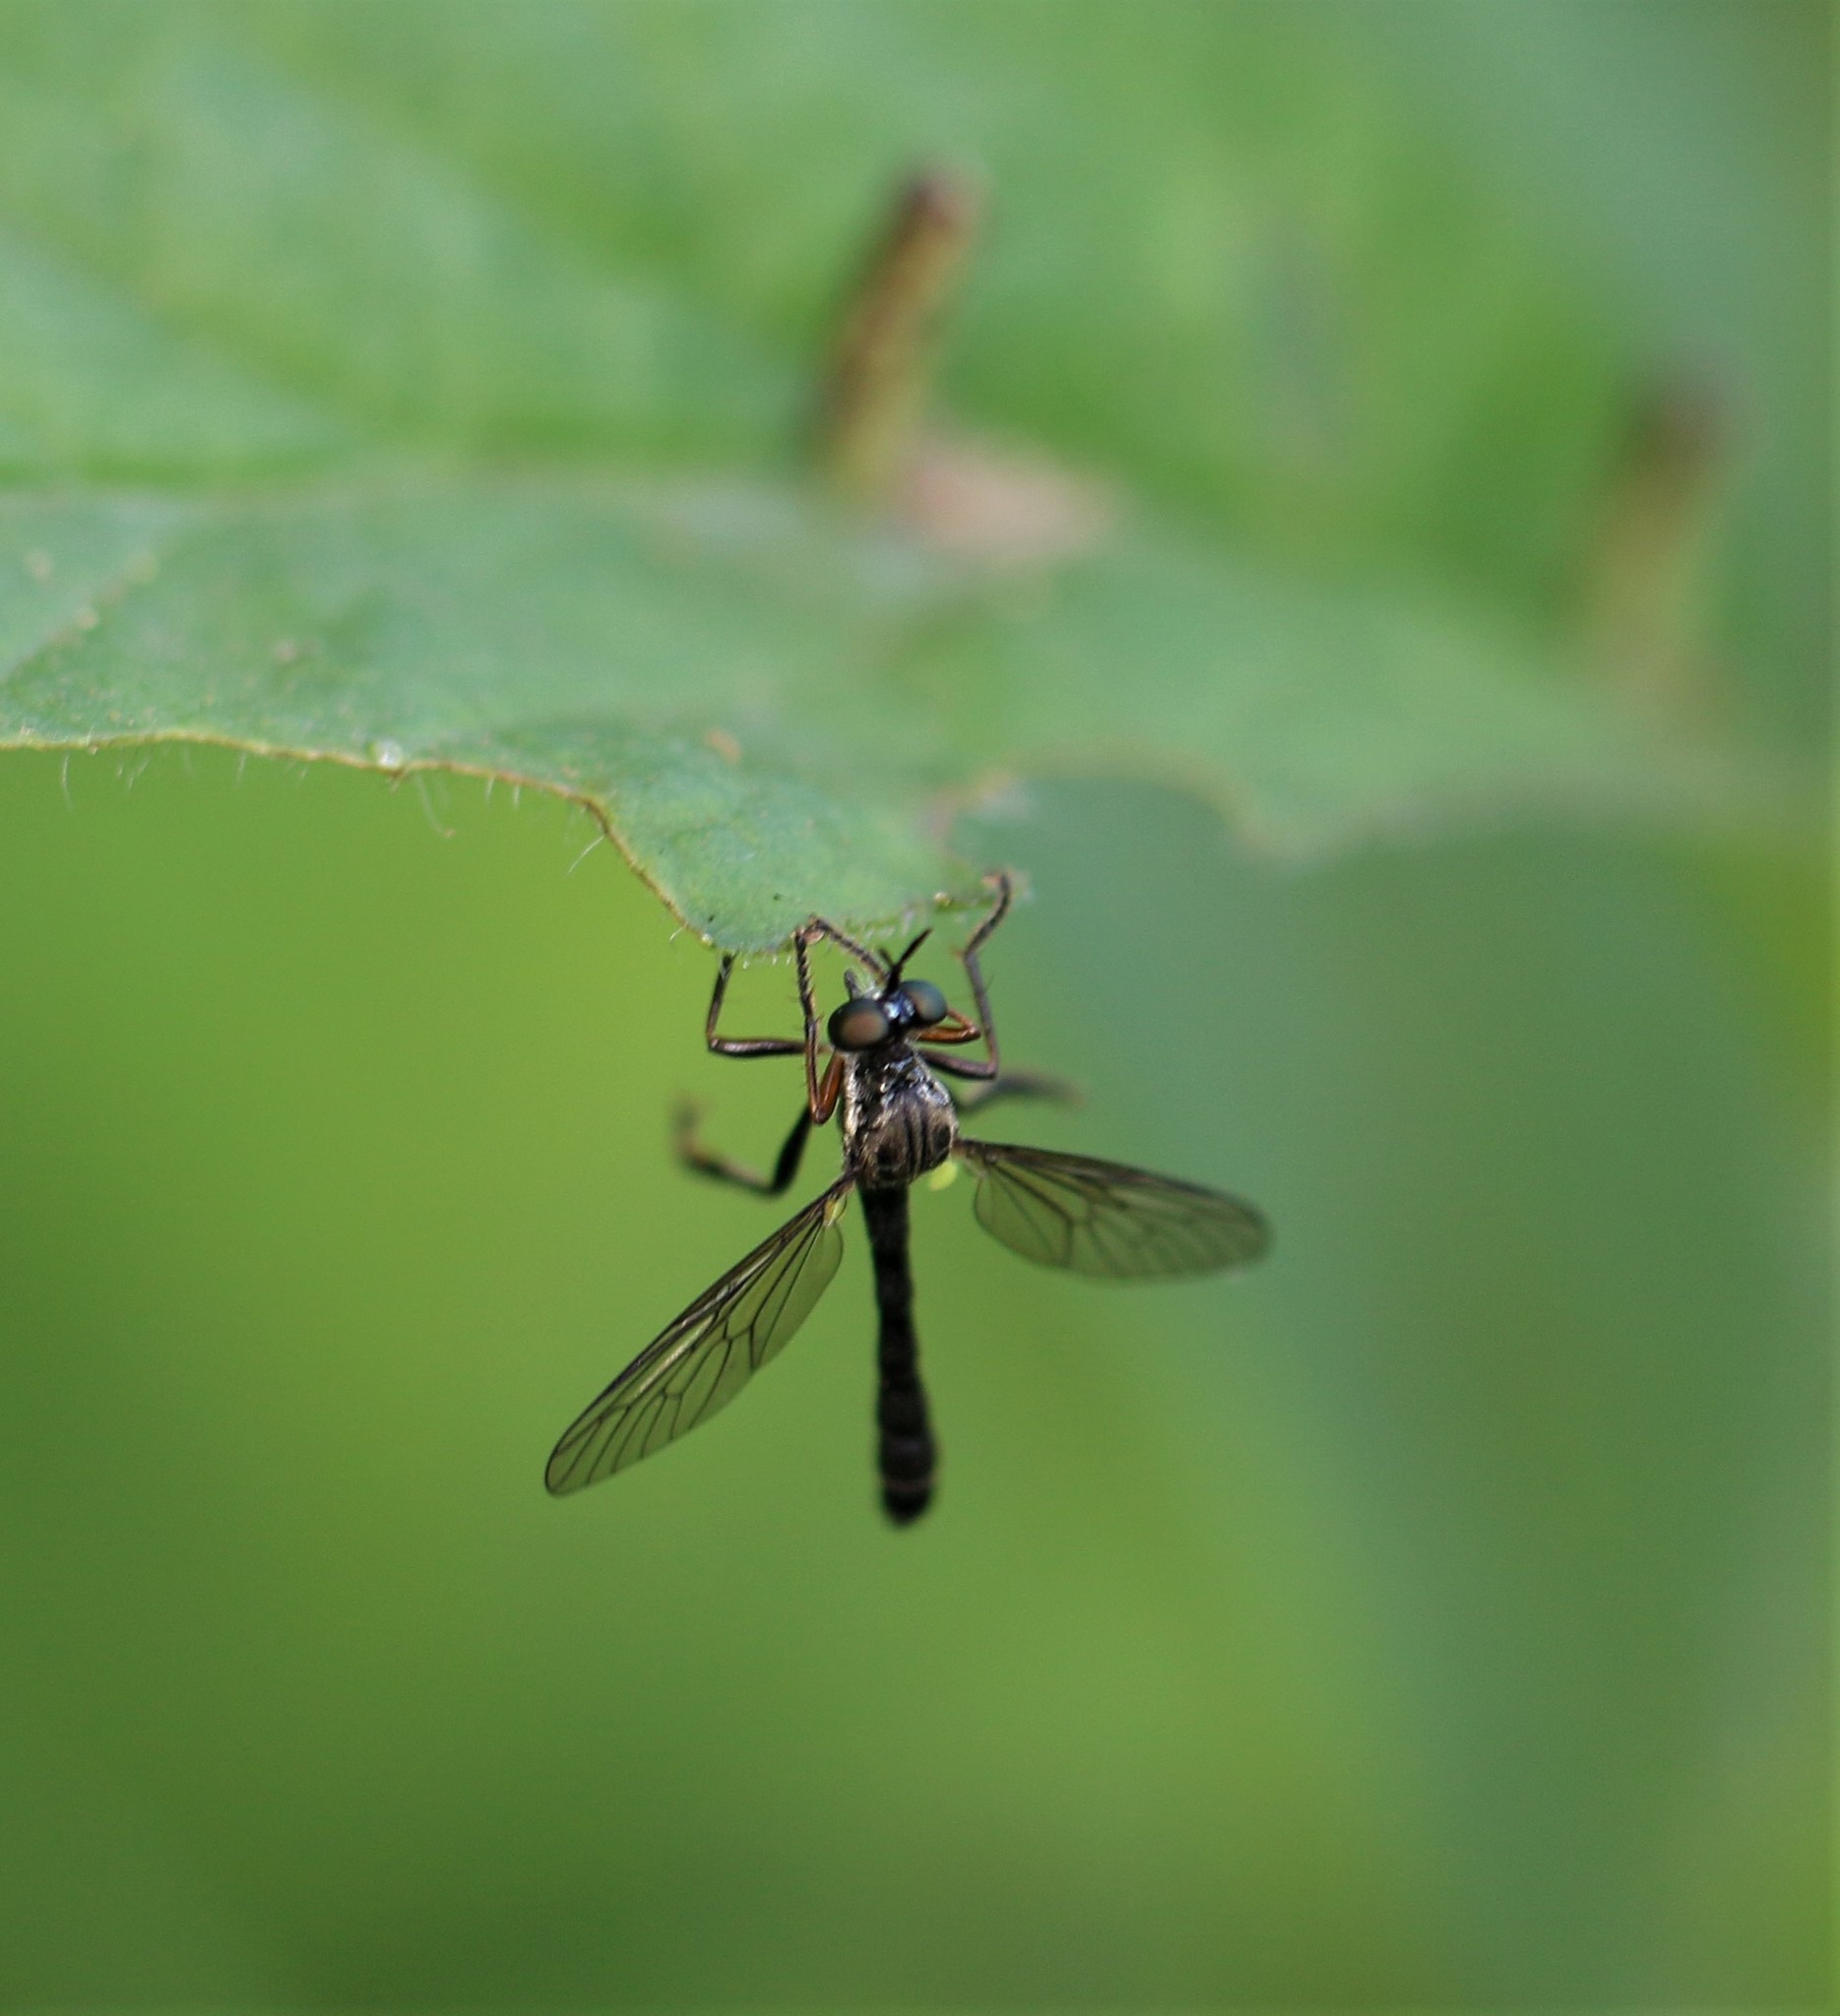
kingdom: Animalia
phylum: Arthropoda
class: Insecta
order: Diptera
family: Asilidae
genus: Dioctria
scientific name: Dioctria hyalipennis
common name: Stripe-legged robberfly
